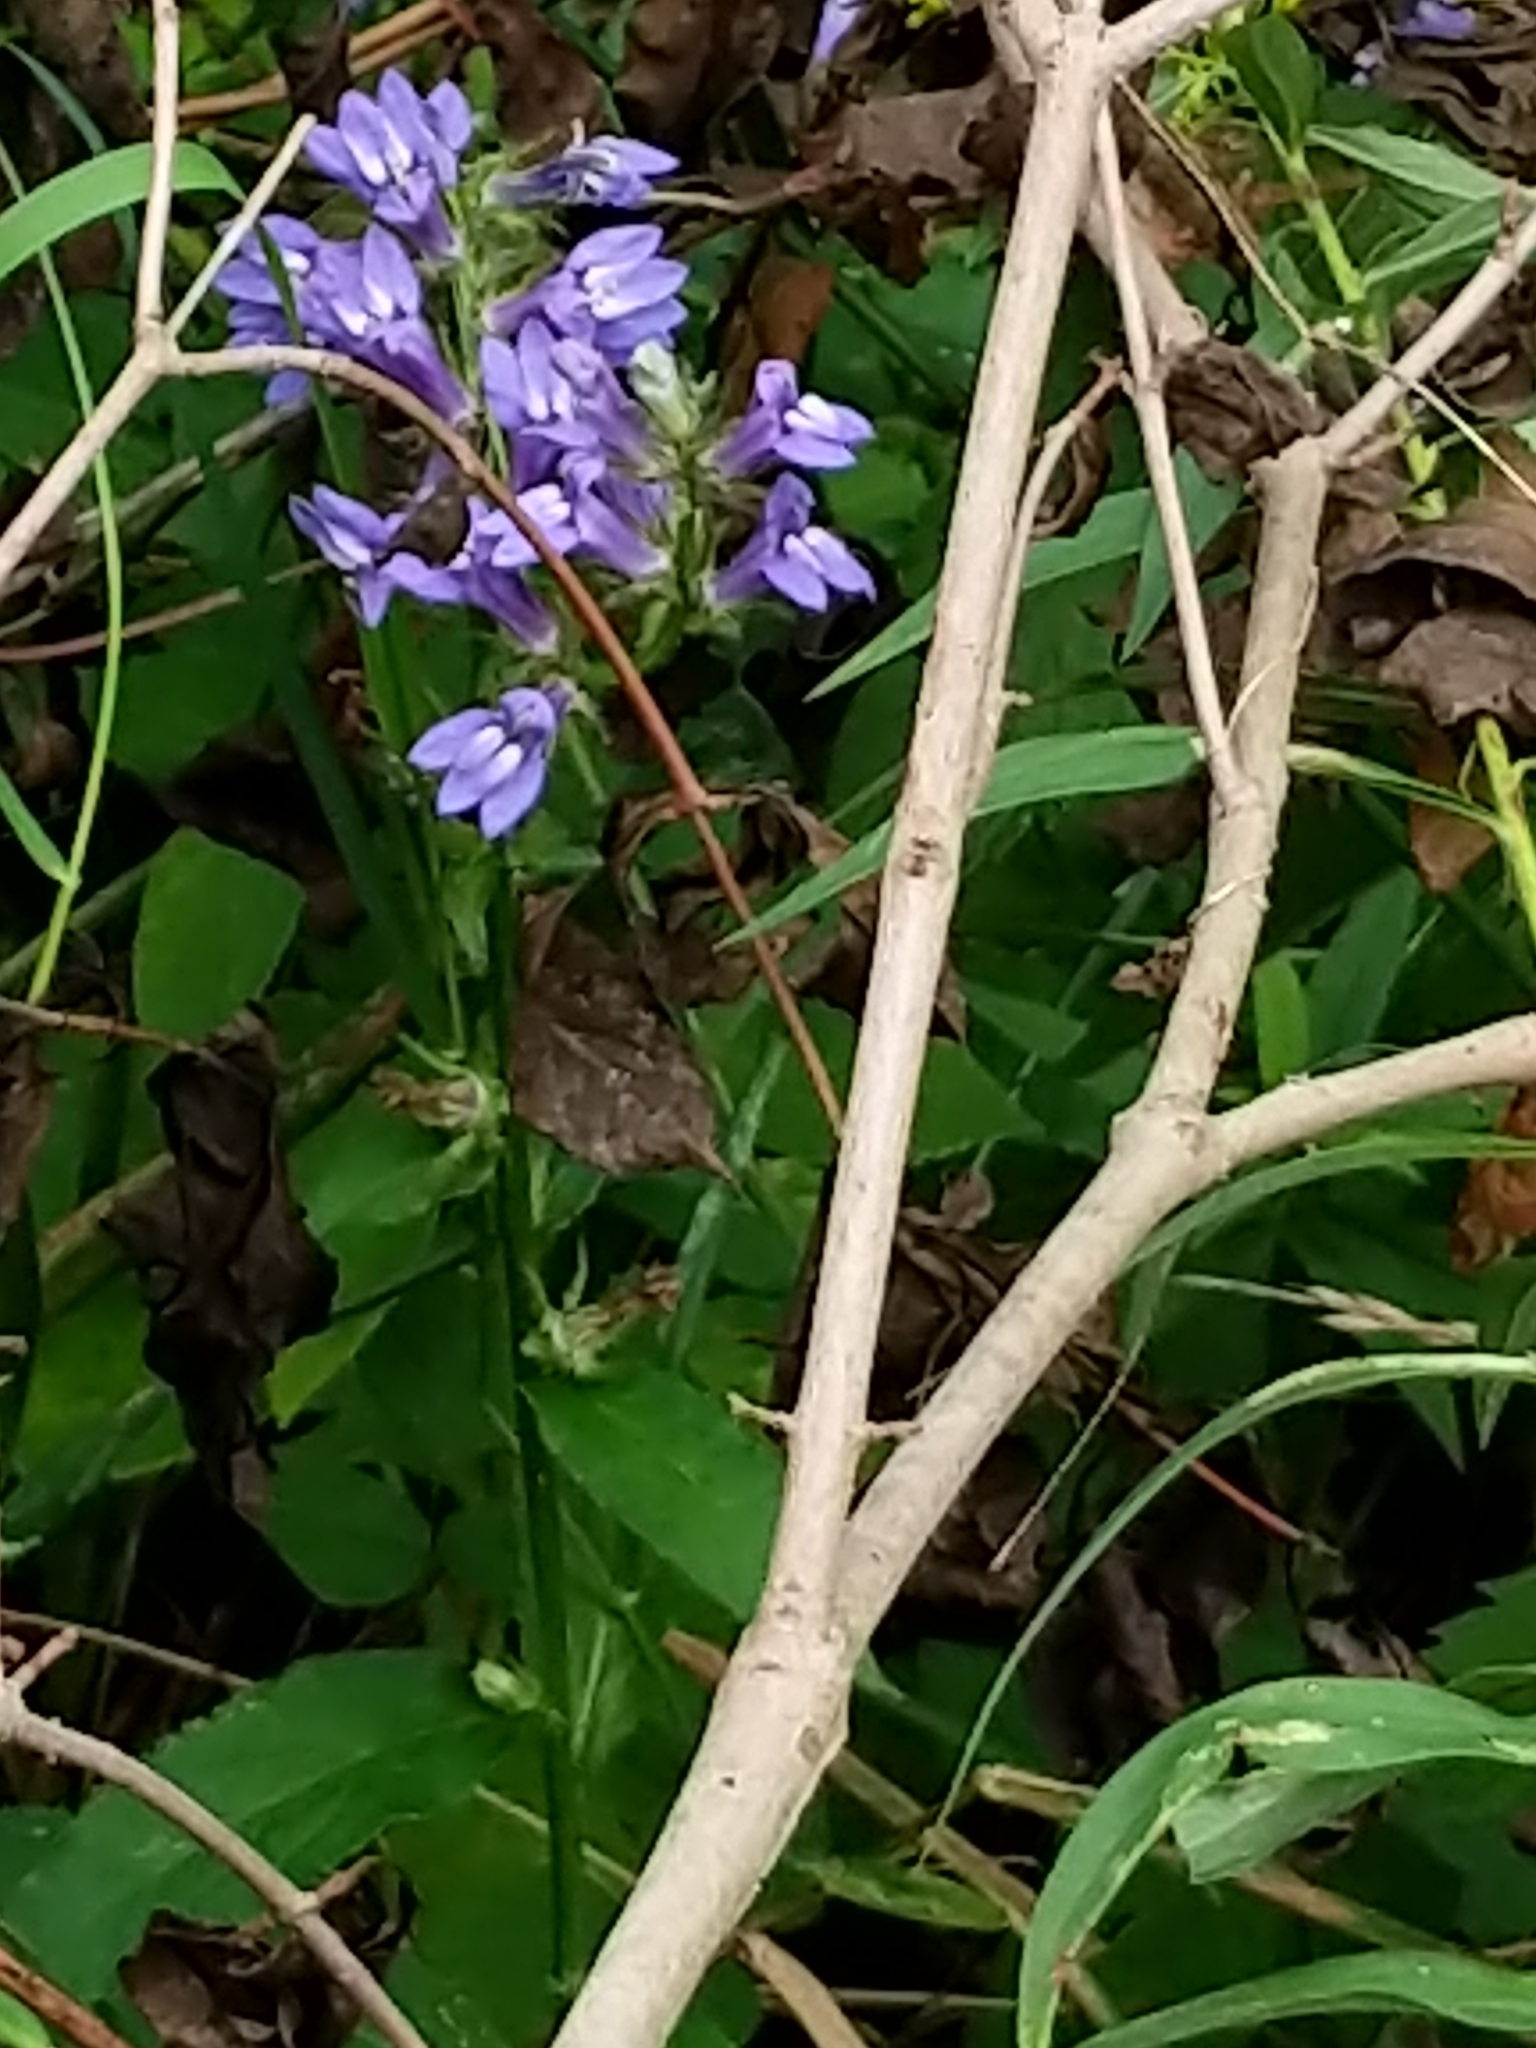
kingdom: Plantae
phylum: Tracheophyta
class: Magnoliopsida
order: Asterales
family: Campanulaceae
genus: Lobelia
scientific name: Lobelia siphilitica
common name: Great lobelia
